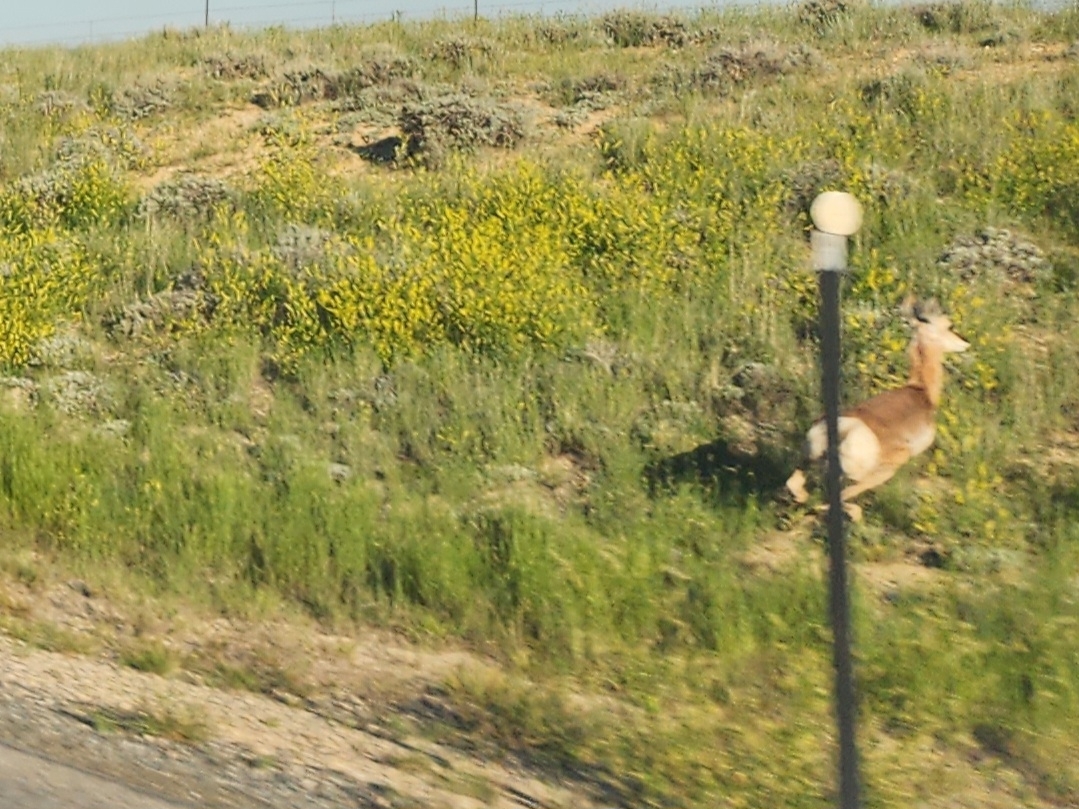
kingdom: Animalia
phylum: Chordata
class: Mammalia
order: Artiodactyla
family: Antilocapridae
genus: Antilocapra
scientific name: Antilocapra americana
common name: Pronghorn
